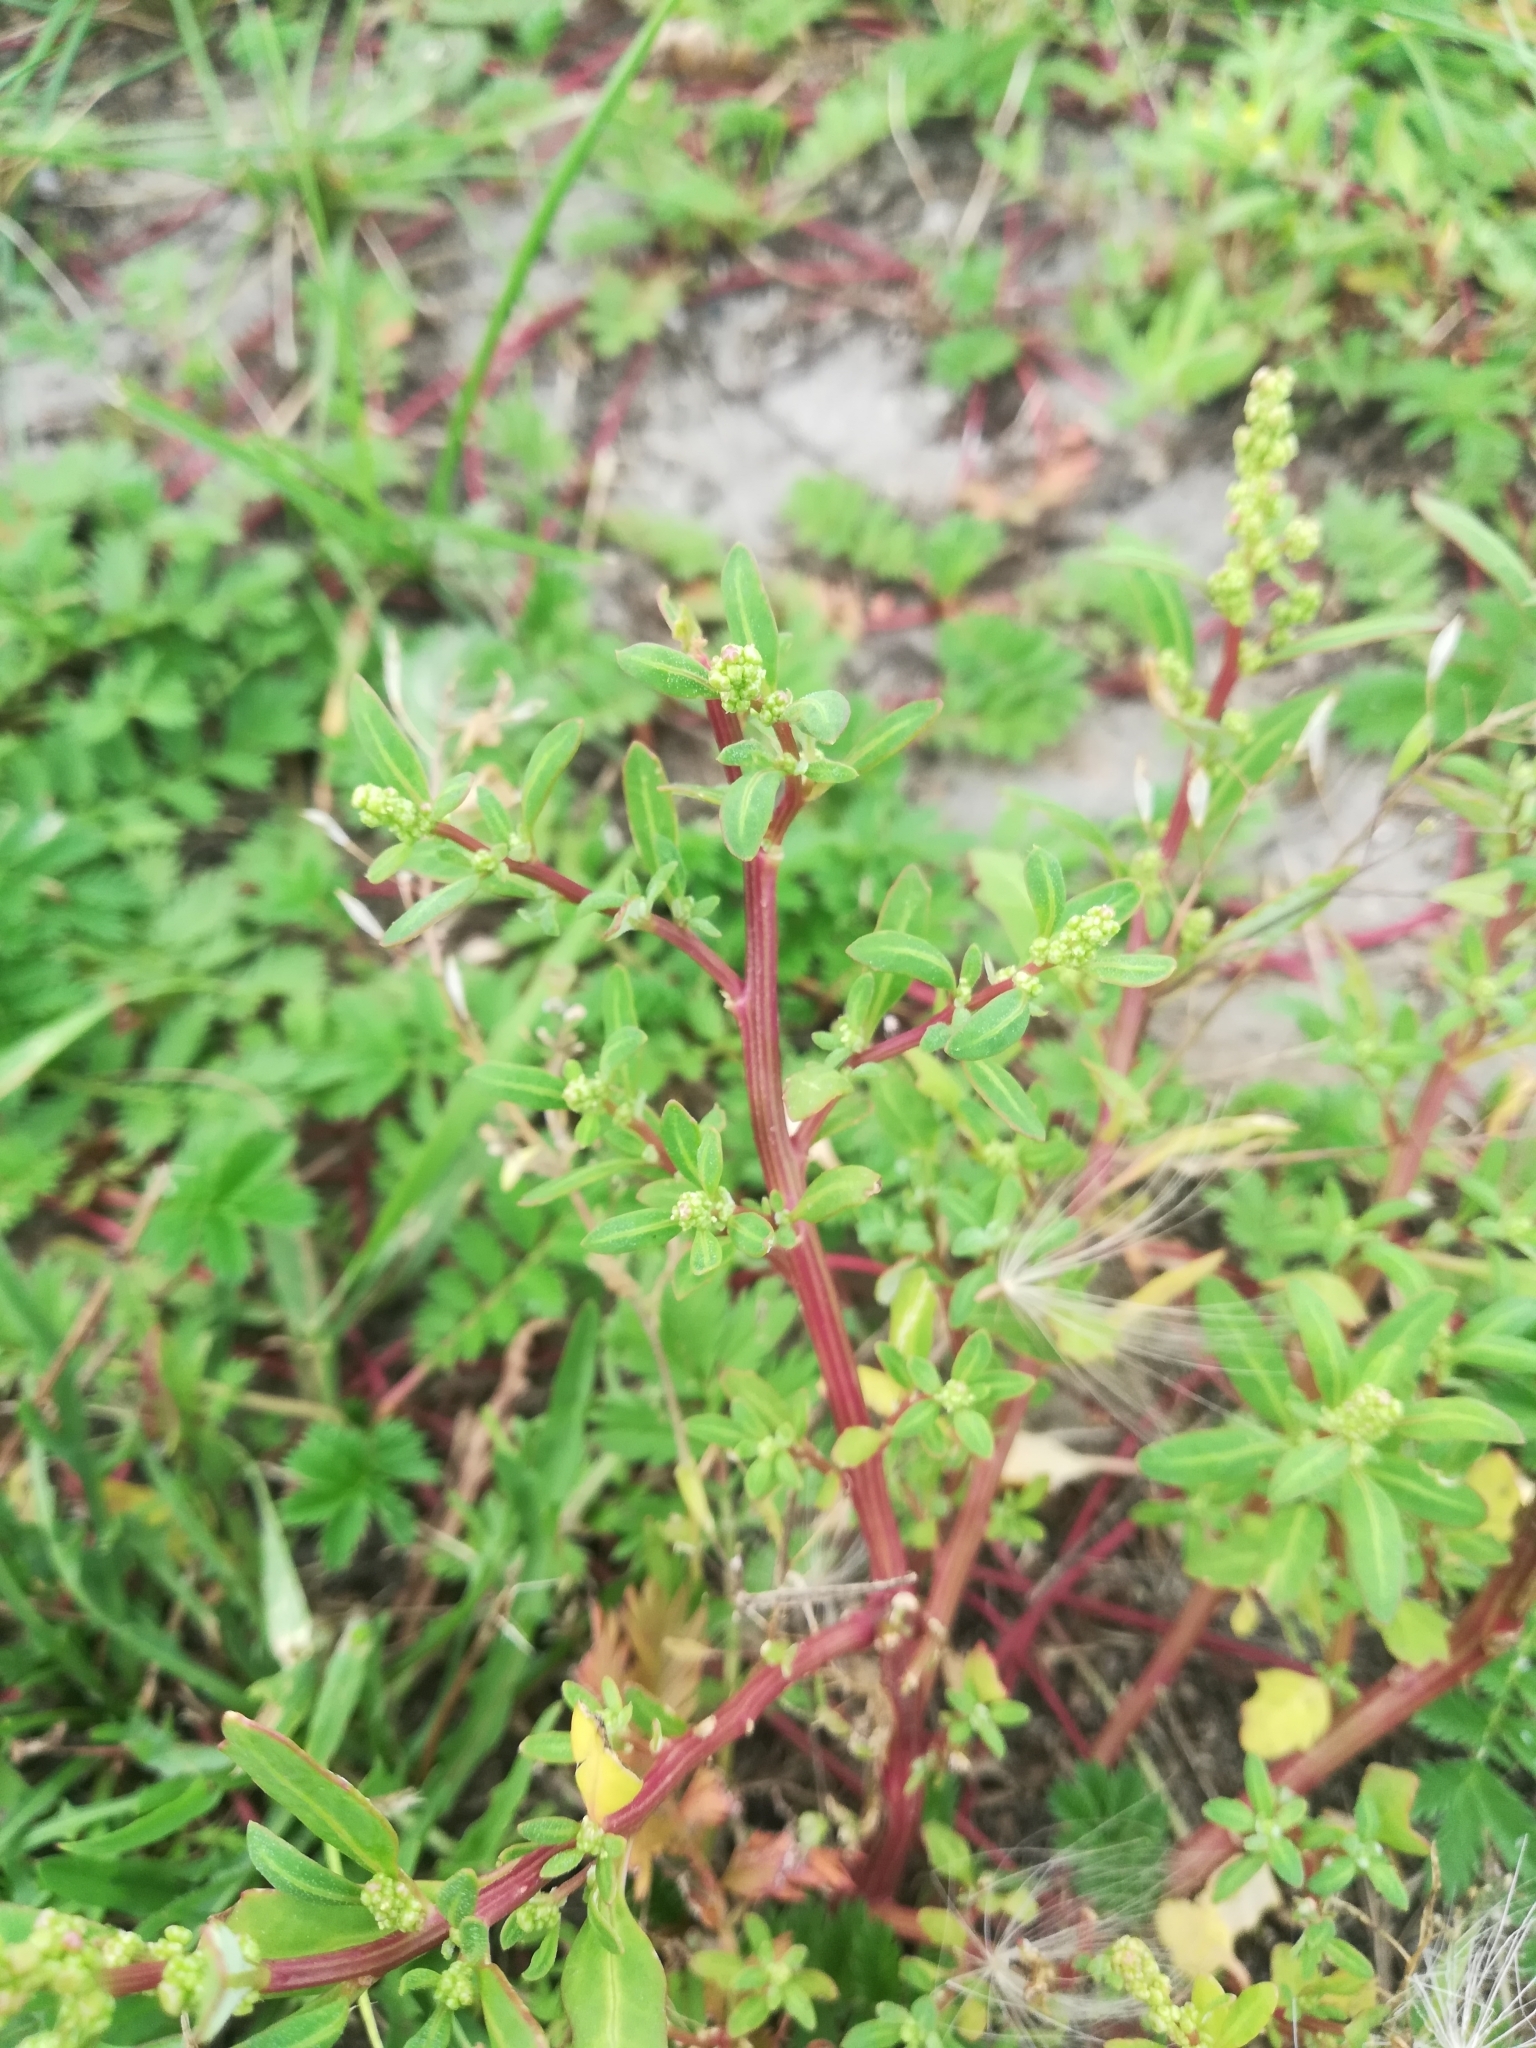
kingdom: Plantae
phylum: Tracheophyta
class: Magnoliopsida
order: Caryophyllales
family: Amaranthaceae
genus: Oxybasis
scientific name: Oxybasis glauca
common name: Glaucous goosefoot
